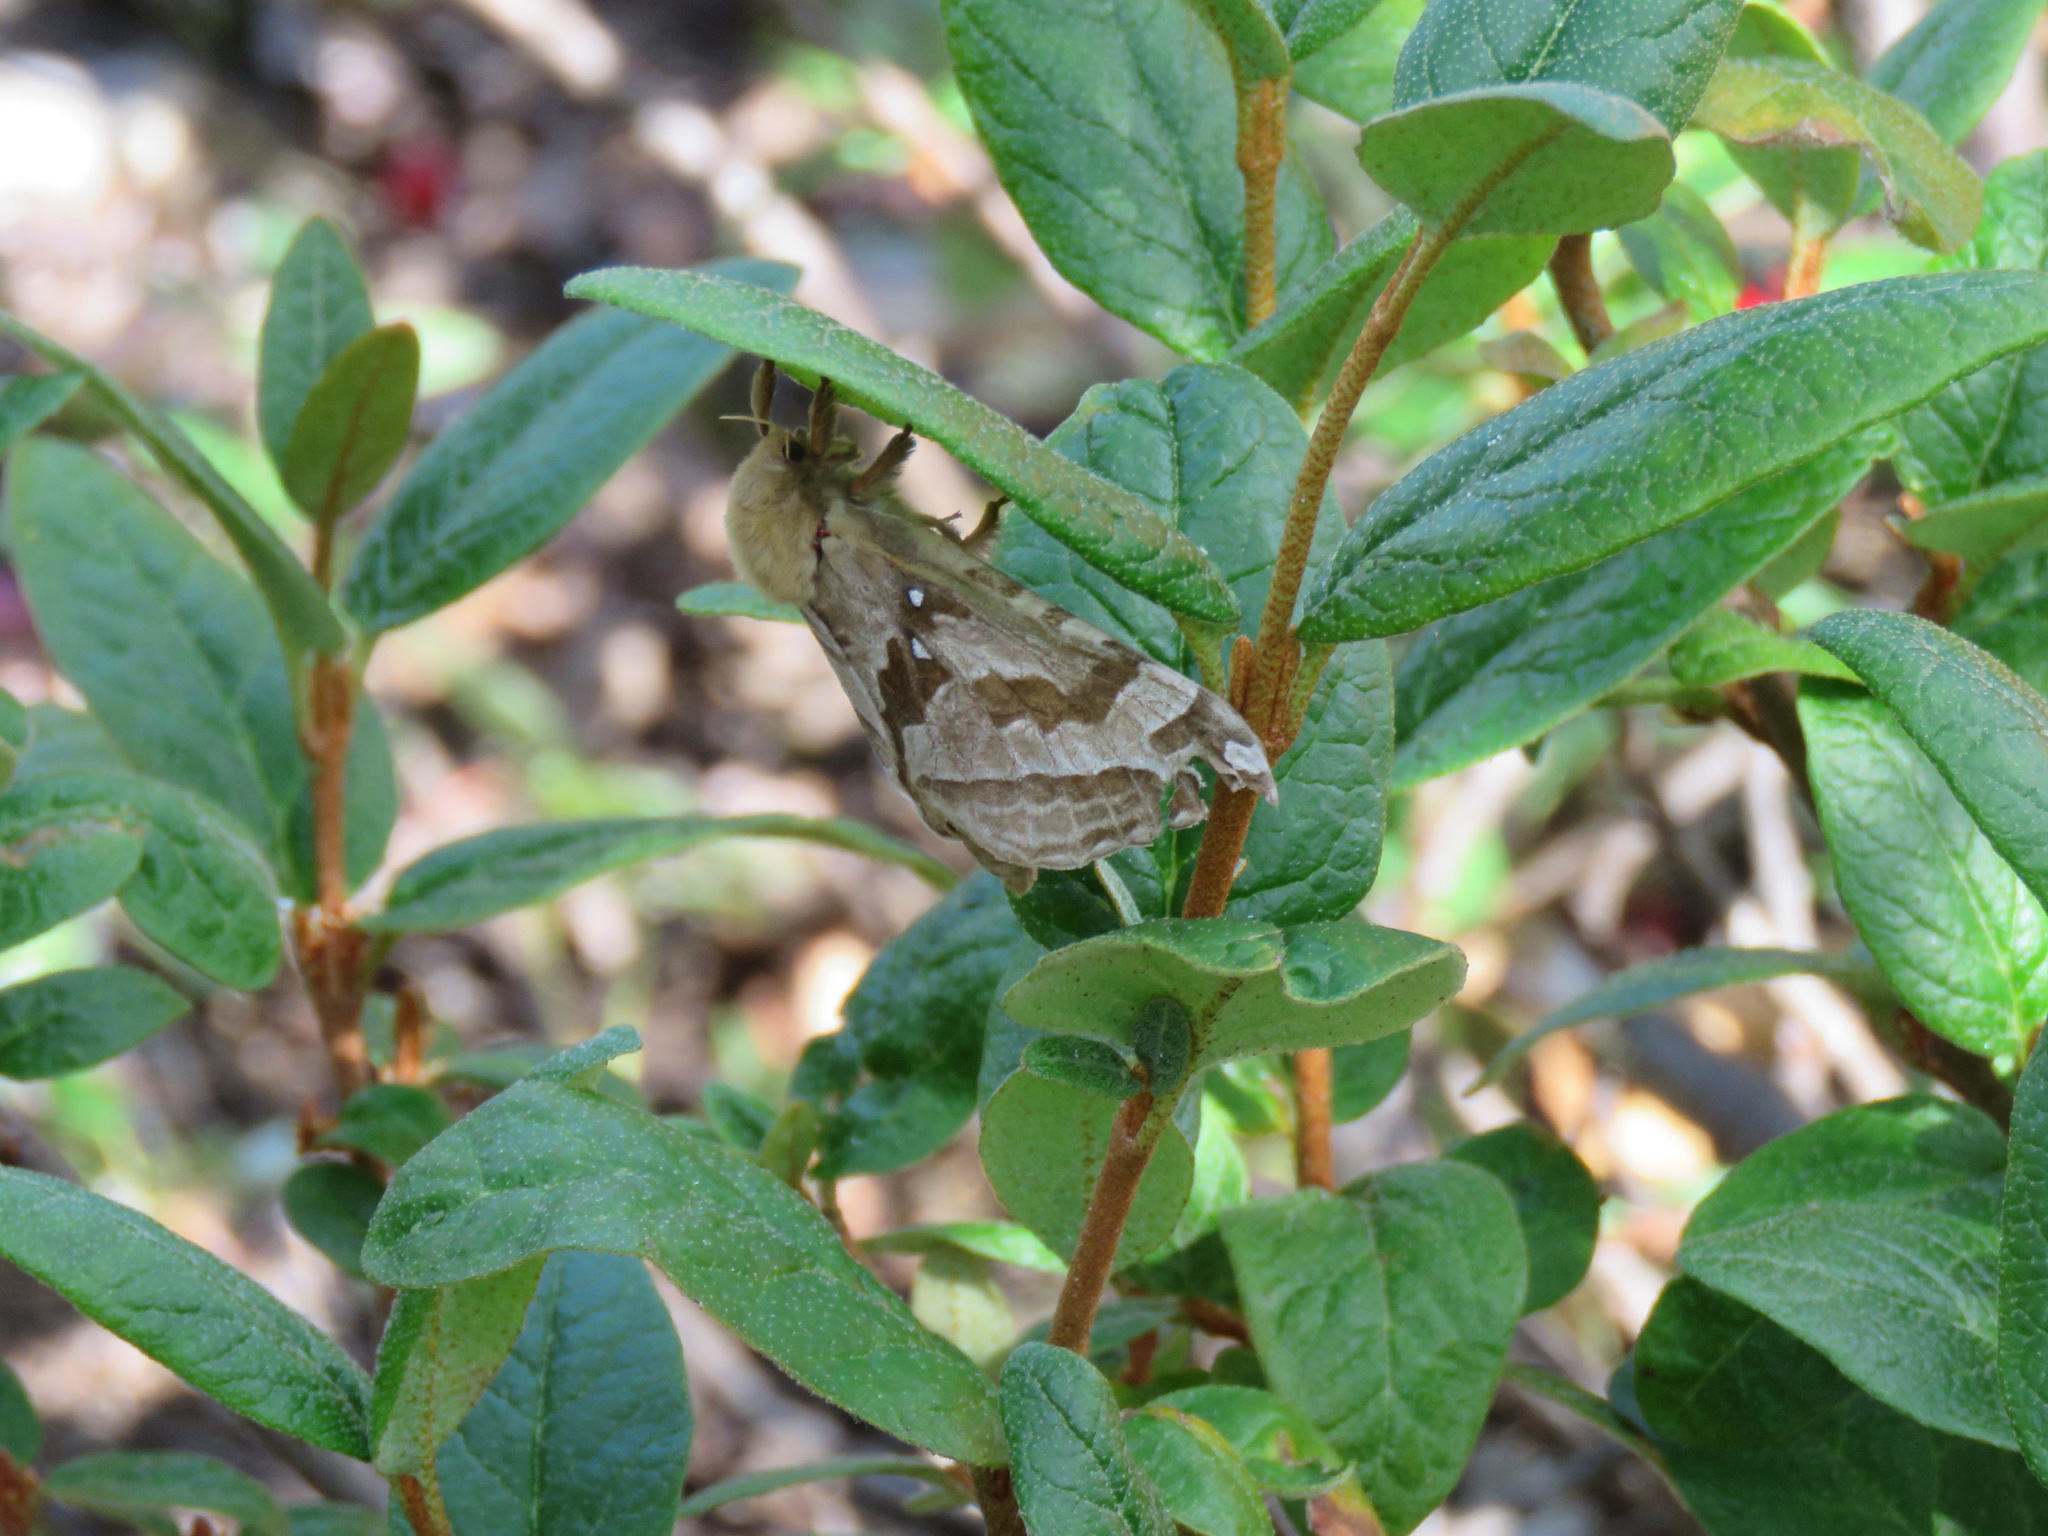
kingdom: Animalia
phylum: Arthropoda
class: Insecta
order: Lepidoptera
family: Hepialidae
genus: Sthenopis
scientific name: Sthenopis purpurascens
